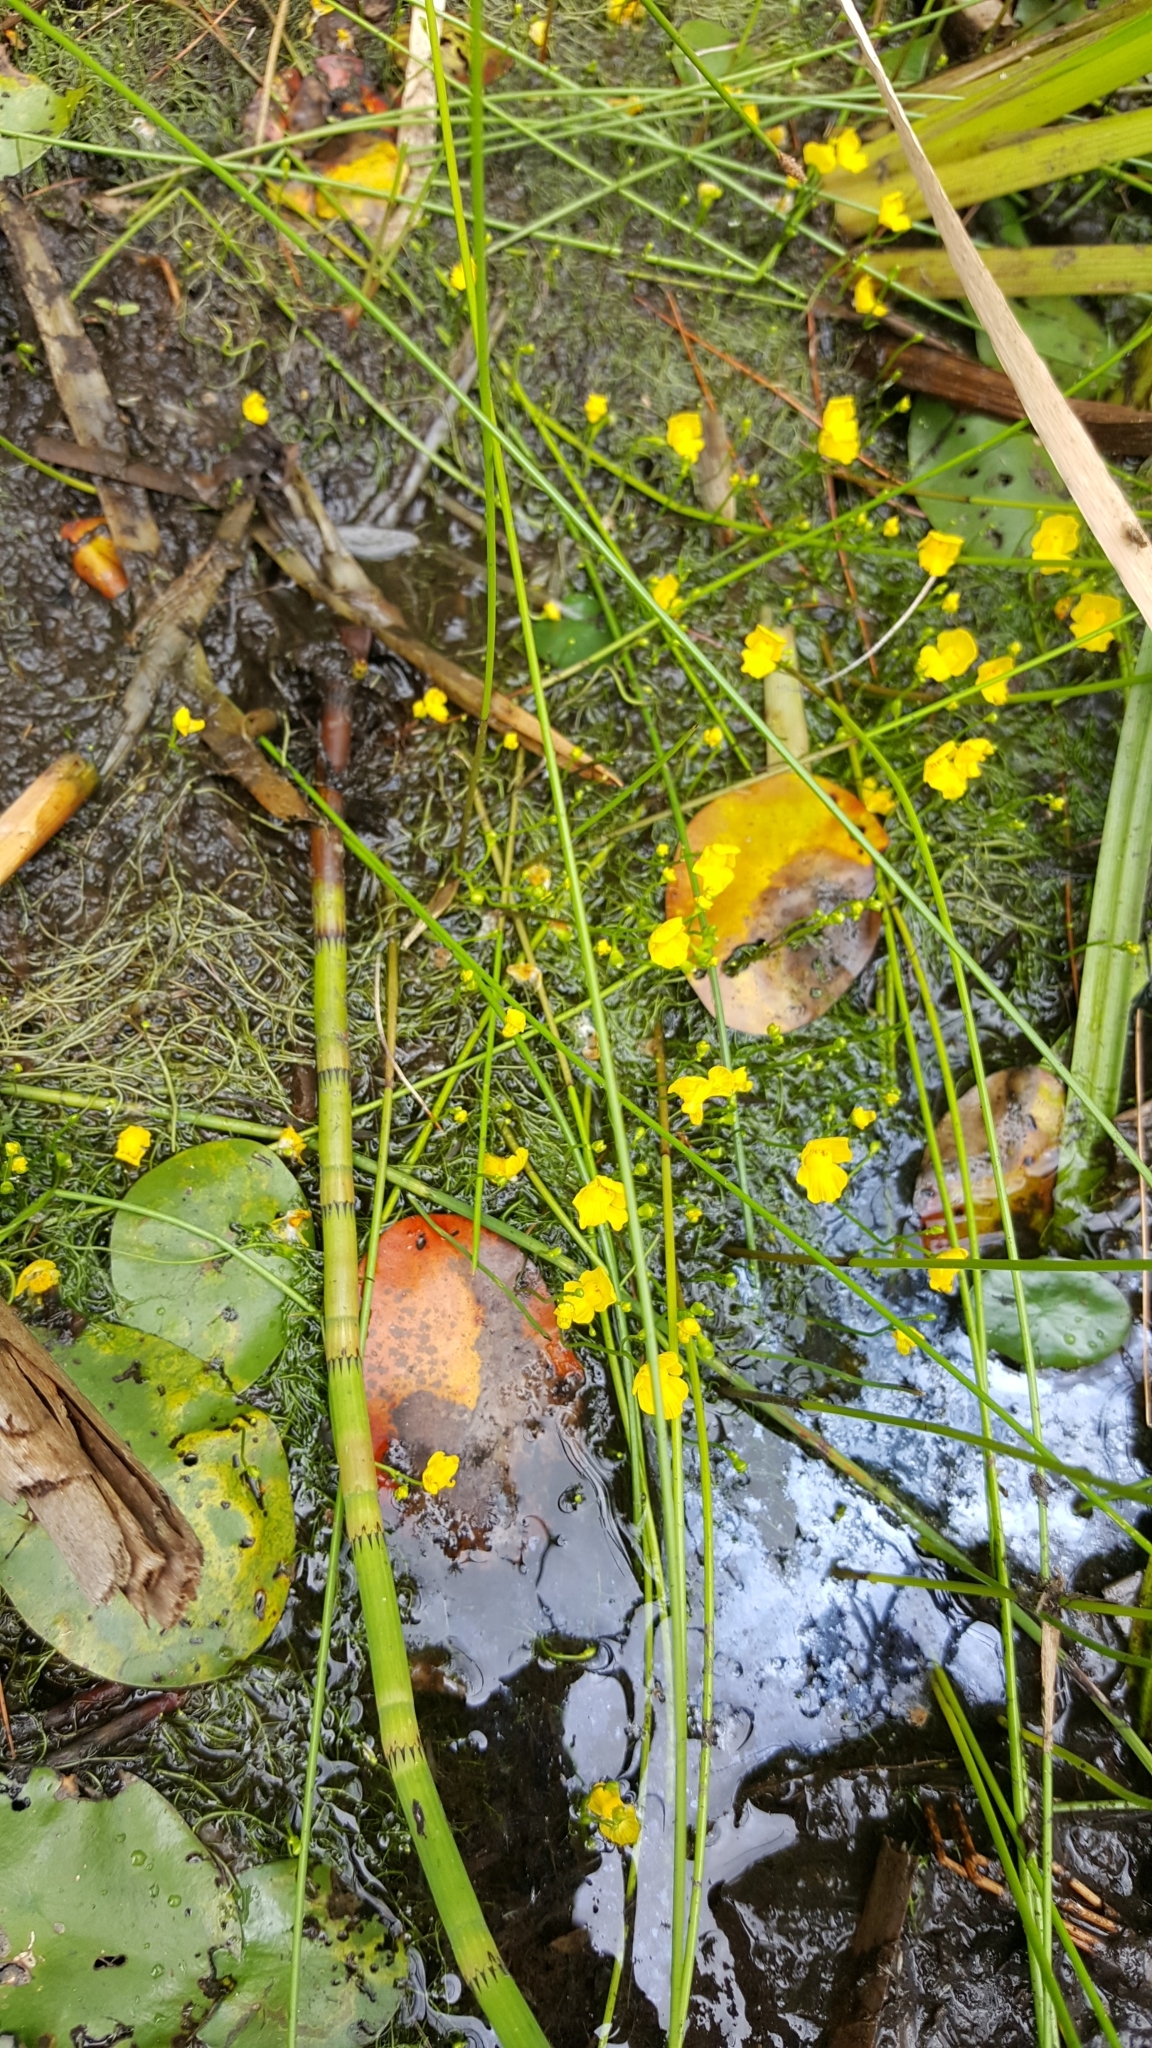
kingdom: Plantae
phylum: Tracheophyta
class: Magnoliopsida
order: Lamiales
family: Lentibulariaceae
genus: Utricularia
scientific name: Utricularia gibba
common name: Humped bladderwort
